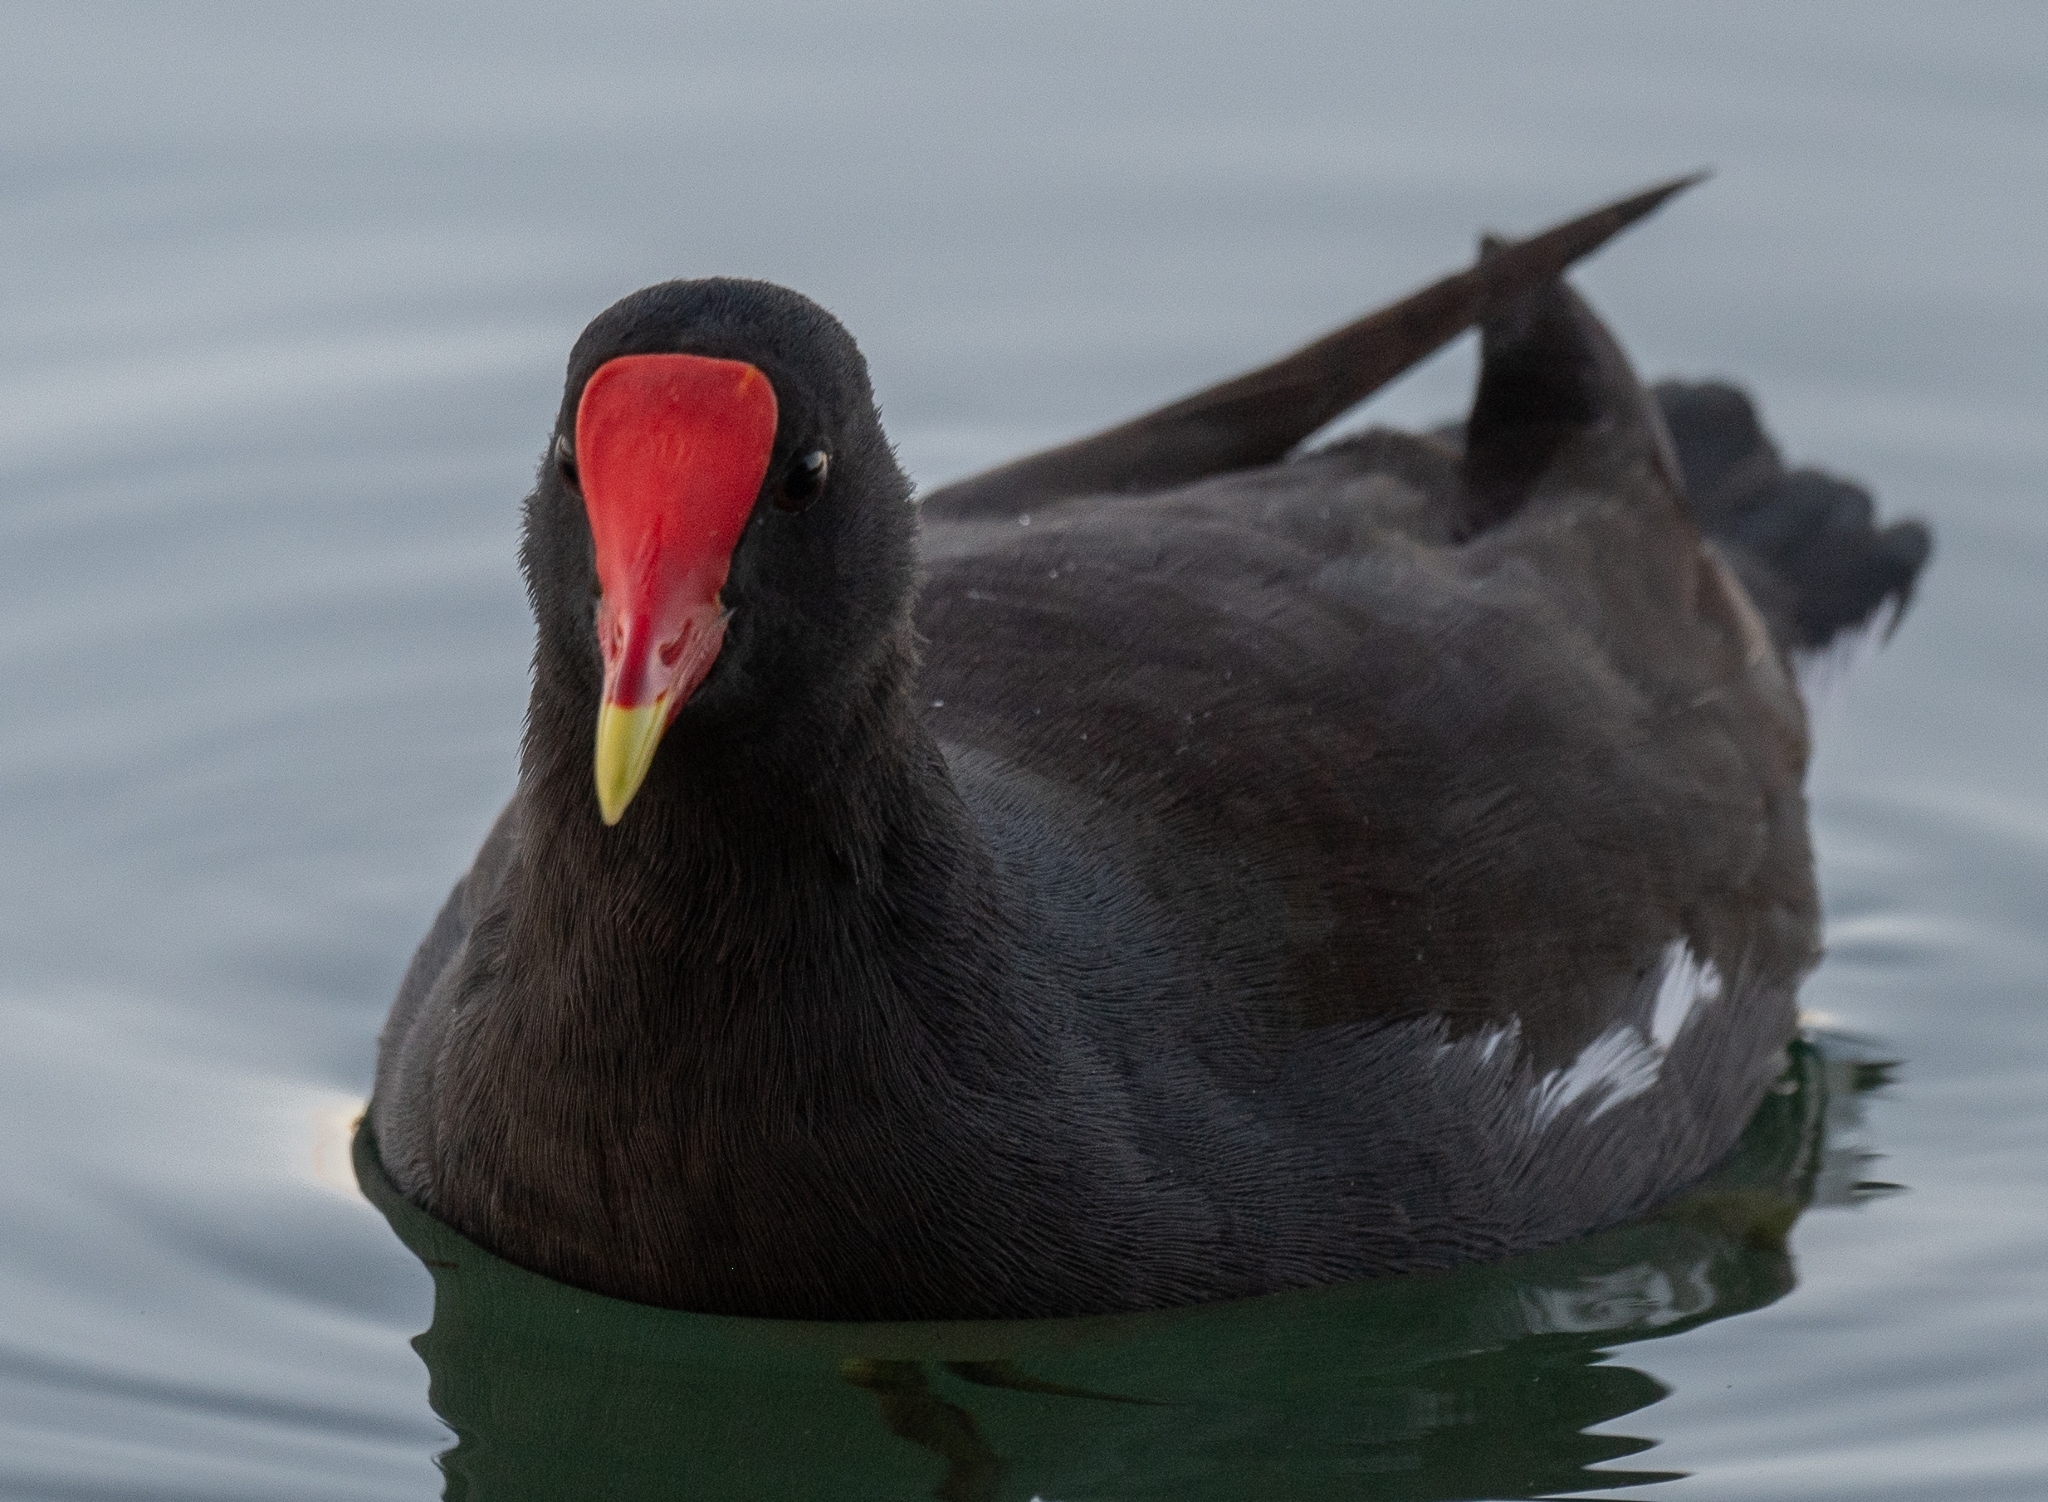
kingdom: Animalia
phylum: Chordata
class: Aves
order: Gruiformes
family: Rallidae
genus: Gallinula
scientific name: Gallinula chloropus
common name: Common moorhen
